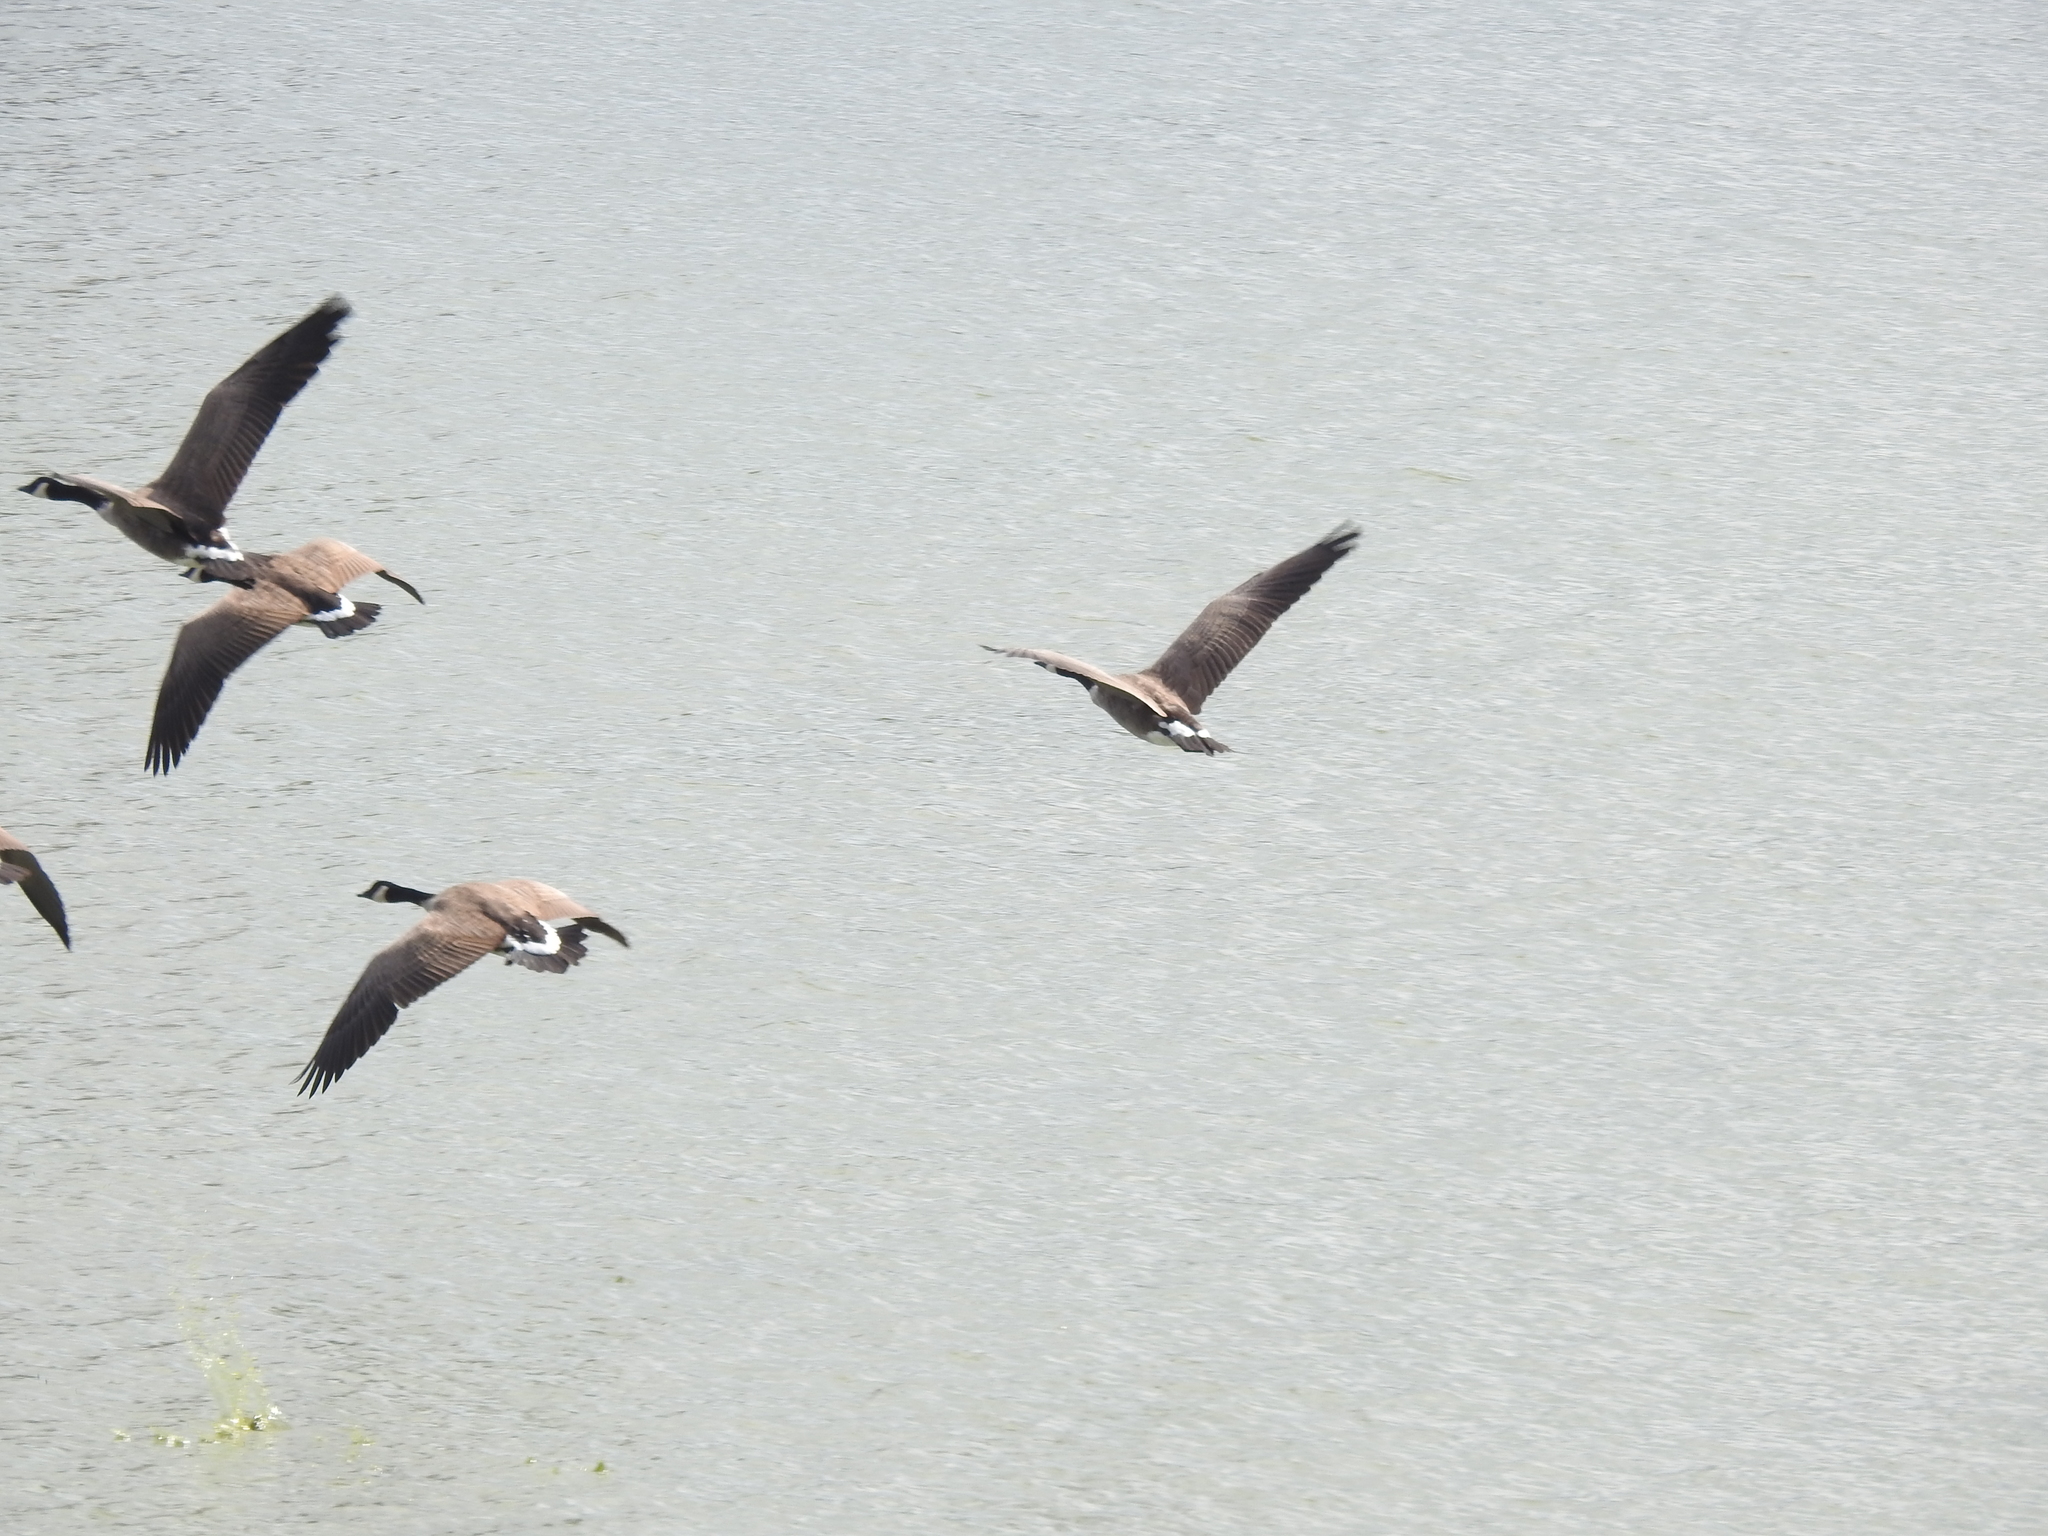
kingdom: Animalia
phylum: Chordata
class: Aves
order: Anseriformes
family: Anatidae
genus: Branta
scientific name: Branta canadensis
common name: Canada goose
